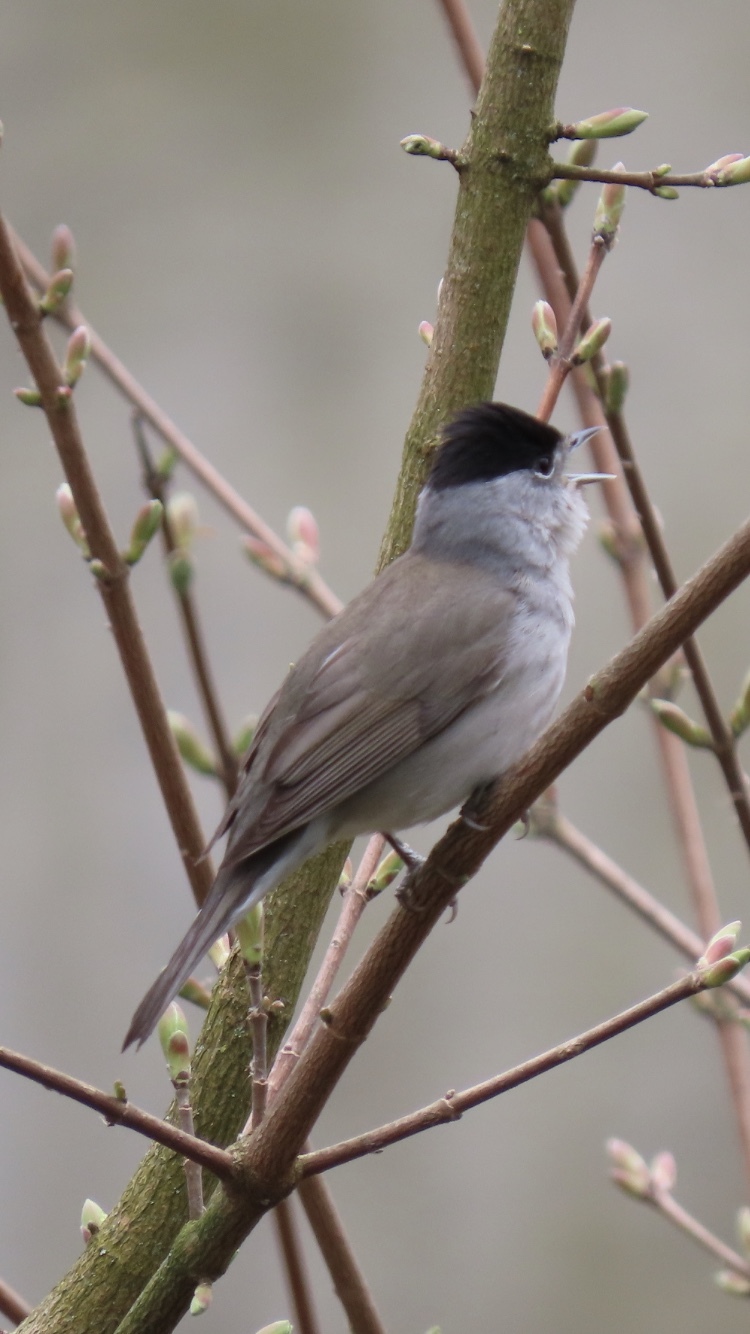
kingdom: Animalia
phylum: Chordata
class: Aves
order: Passeriformes
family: Sylviidae
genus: Sylvia
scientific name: Sylvia atricapilla
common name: Eurasian blackcap
